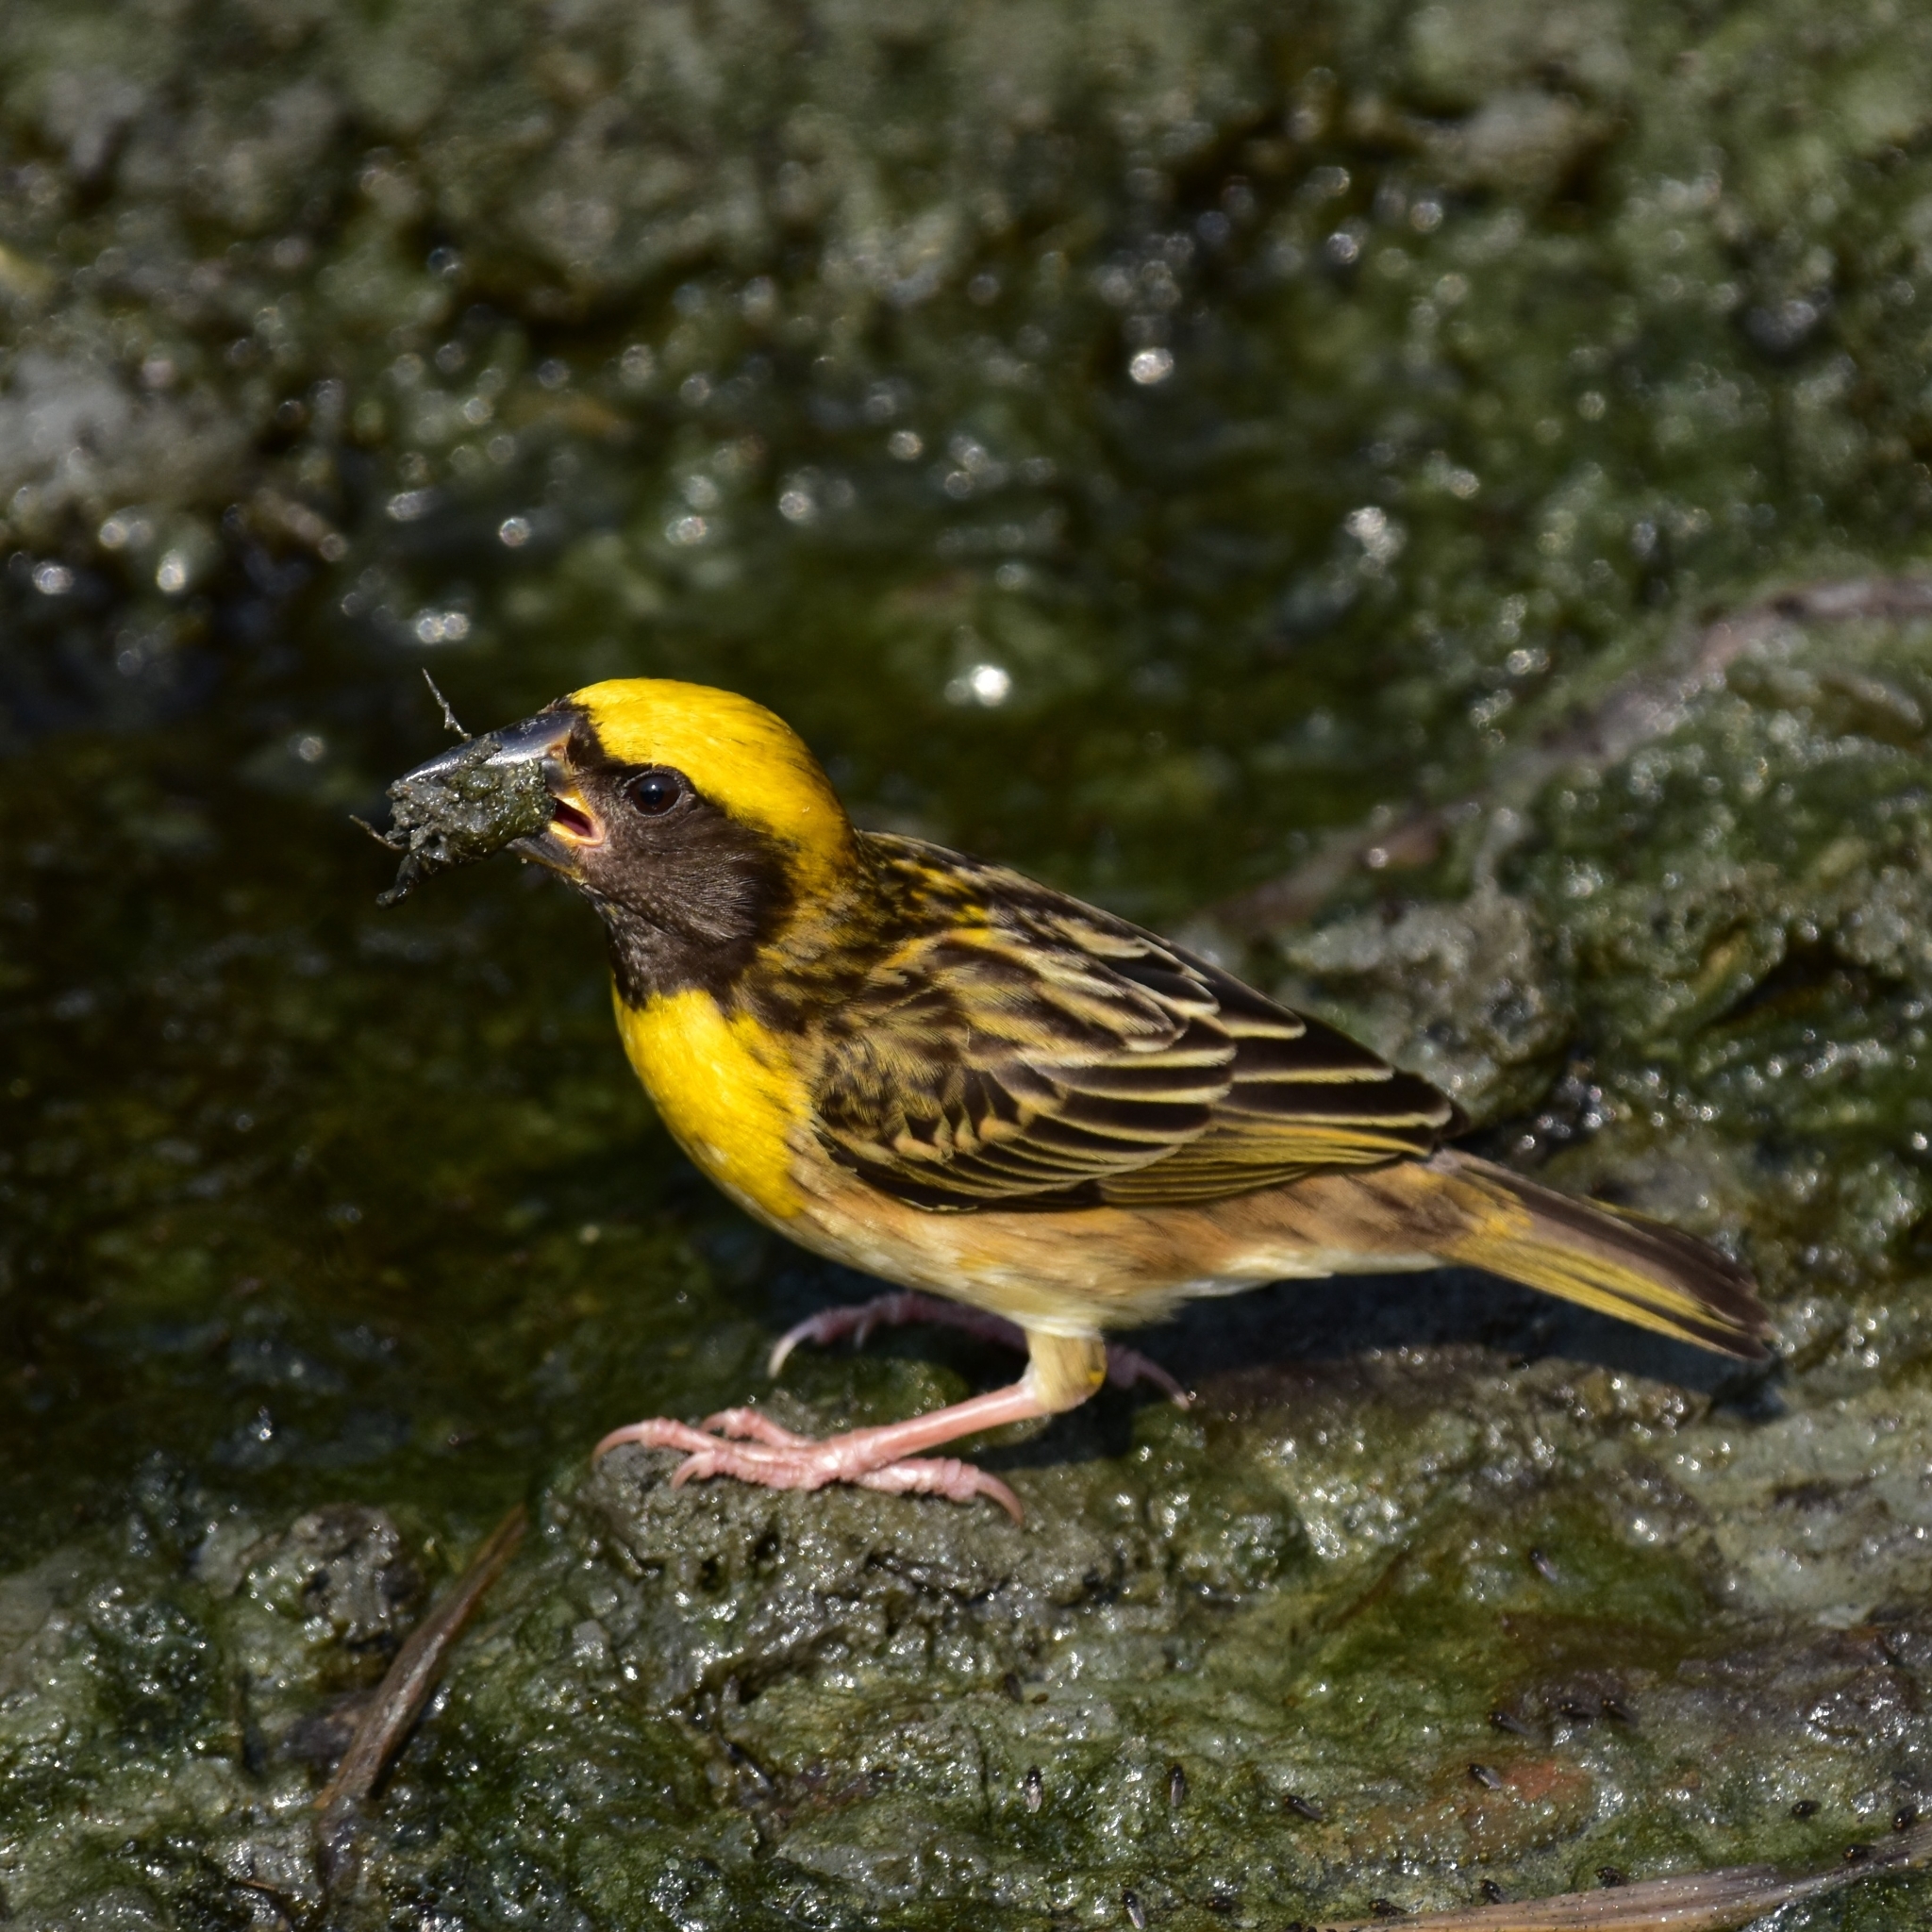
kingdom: Animalia
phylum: Chordata
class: Aves
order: Passeriformes
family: Ploceidae
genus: Ploceus
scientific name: Ploceus philippinus
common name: Baya weaver
